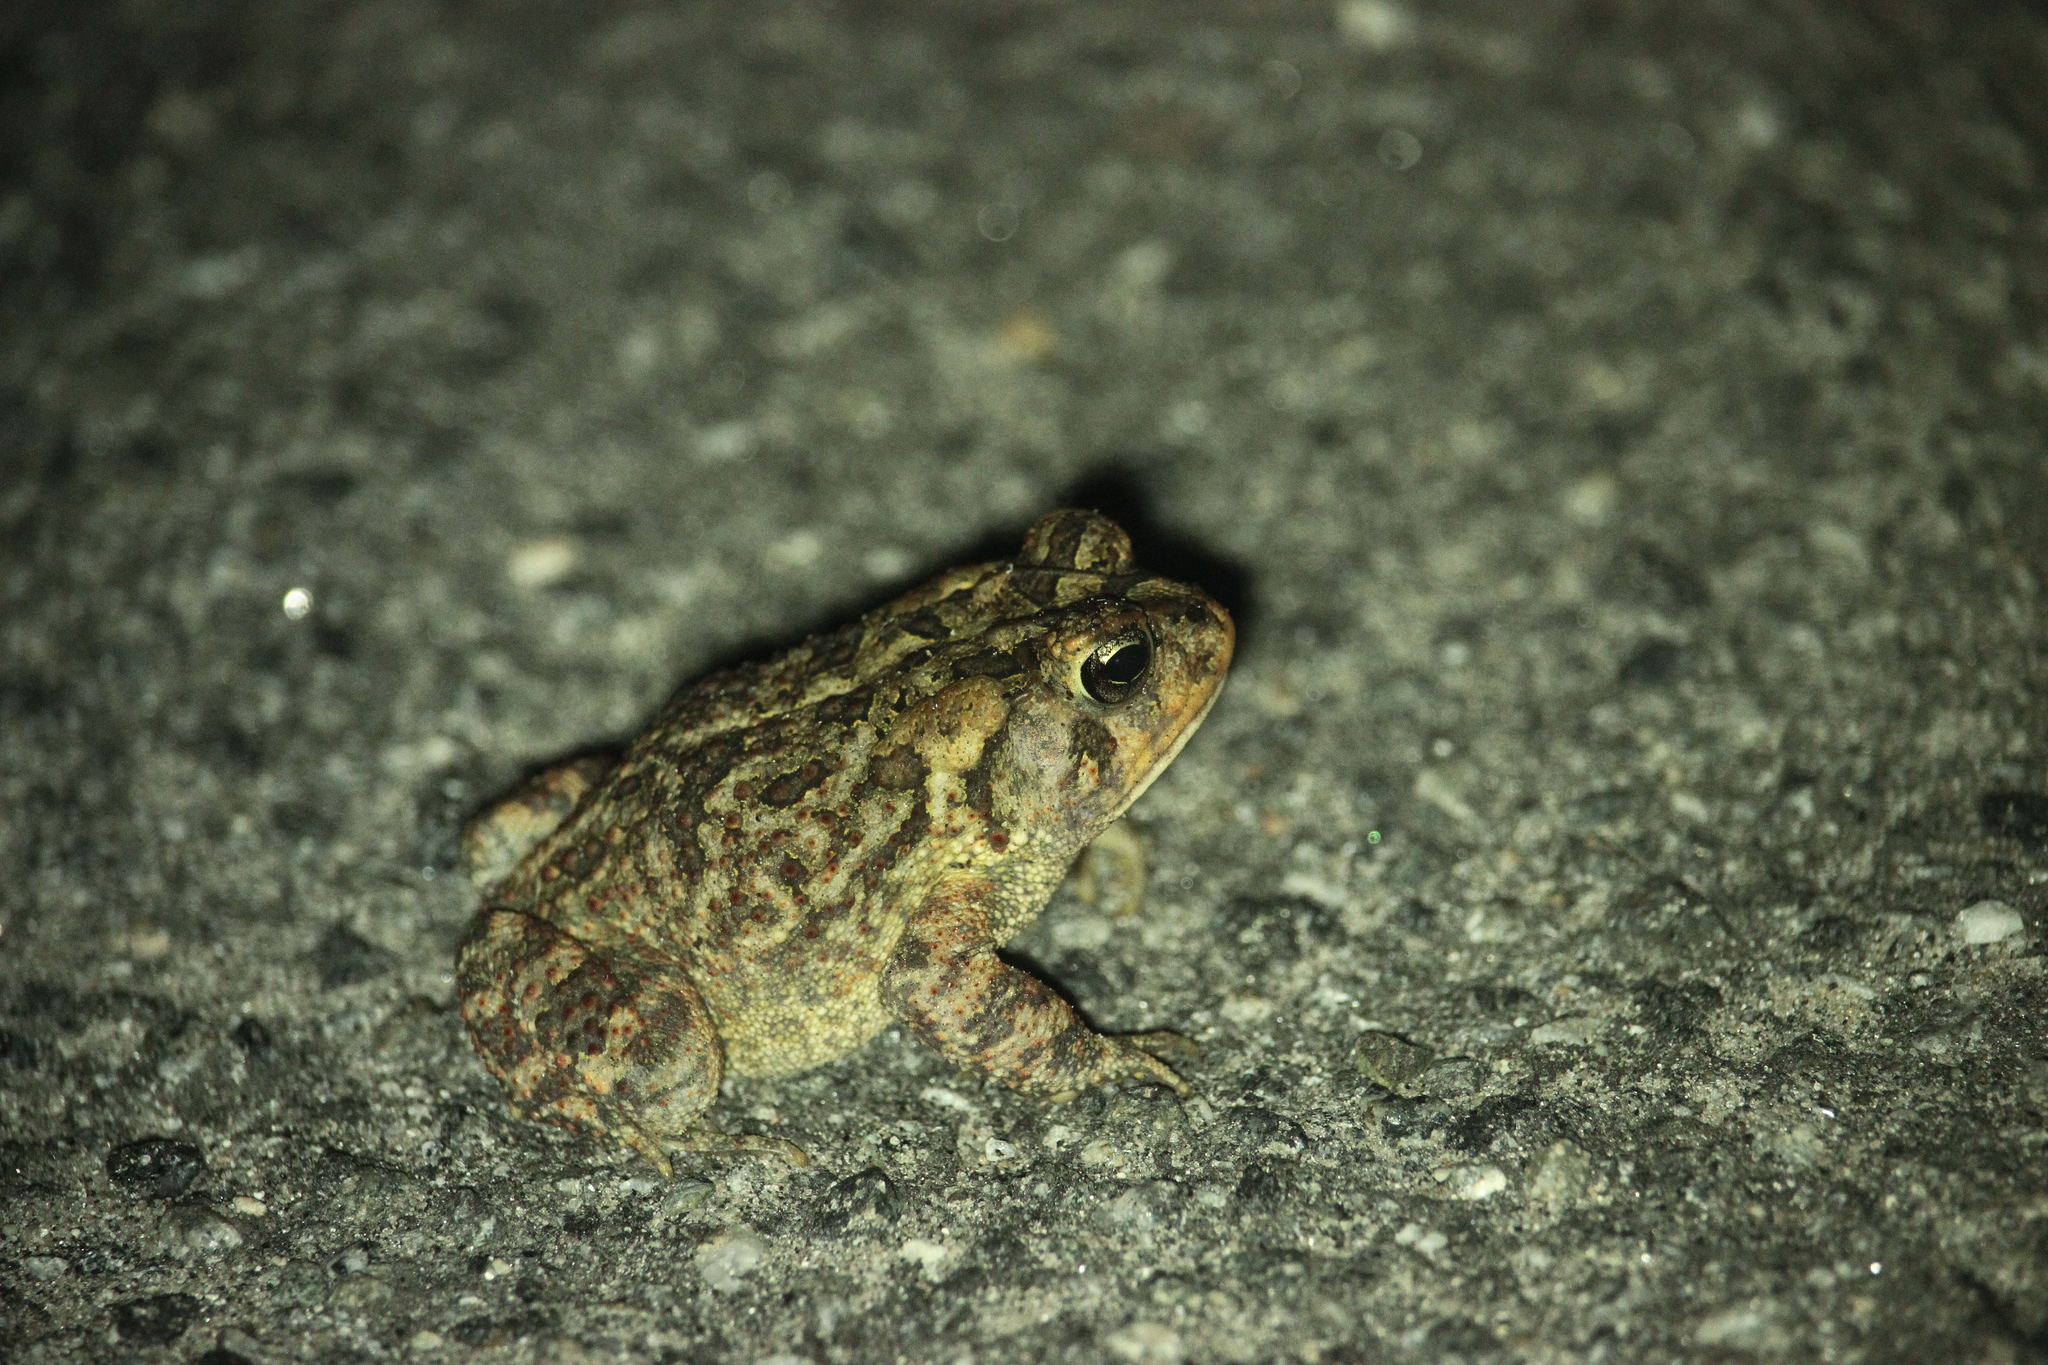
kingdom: Animalia
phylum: Chordata
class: Amphibia
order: Anura
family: Bufonidae
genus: Anaxyrus
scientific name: Anaxyrus terrestris
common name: Southern toad
